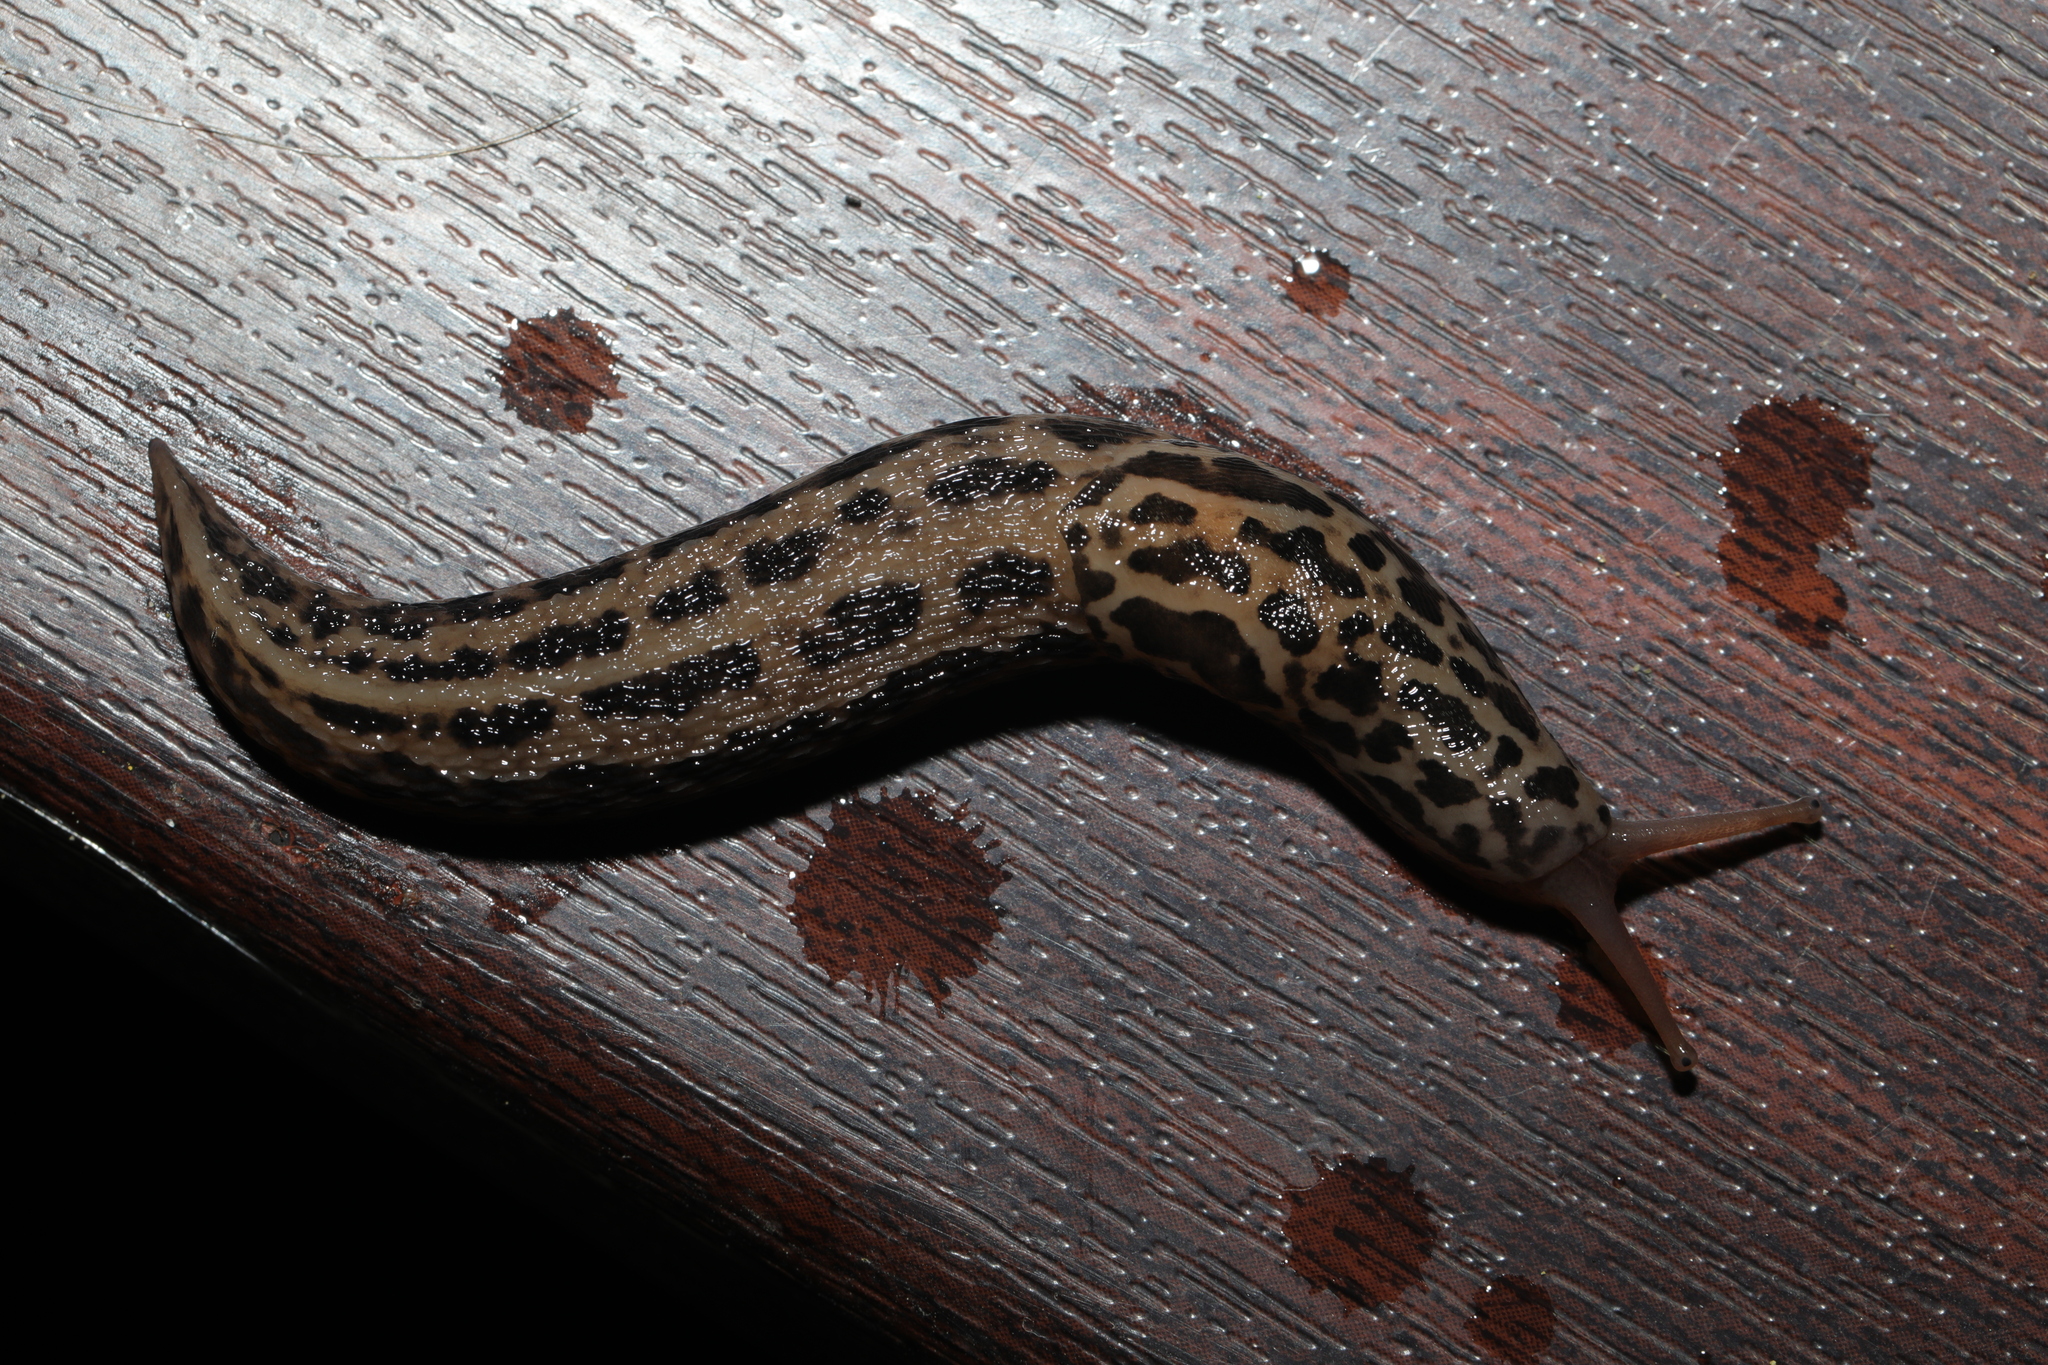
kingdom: Animalia
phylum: Mollusca
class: Gastropoda
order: Stylommatophora
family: Limacidae
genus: Limax
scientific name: Limax maximus
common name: Great grey slug
